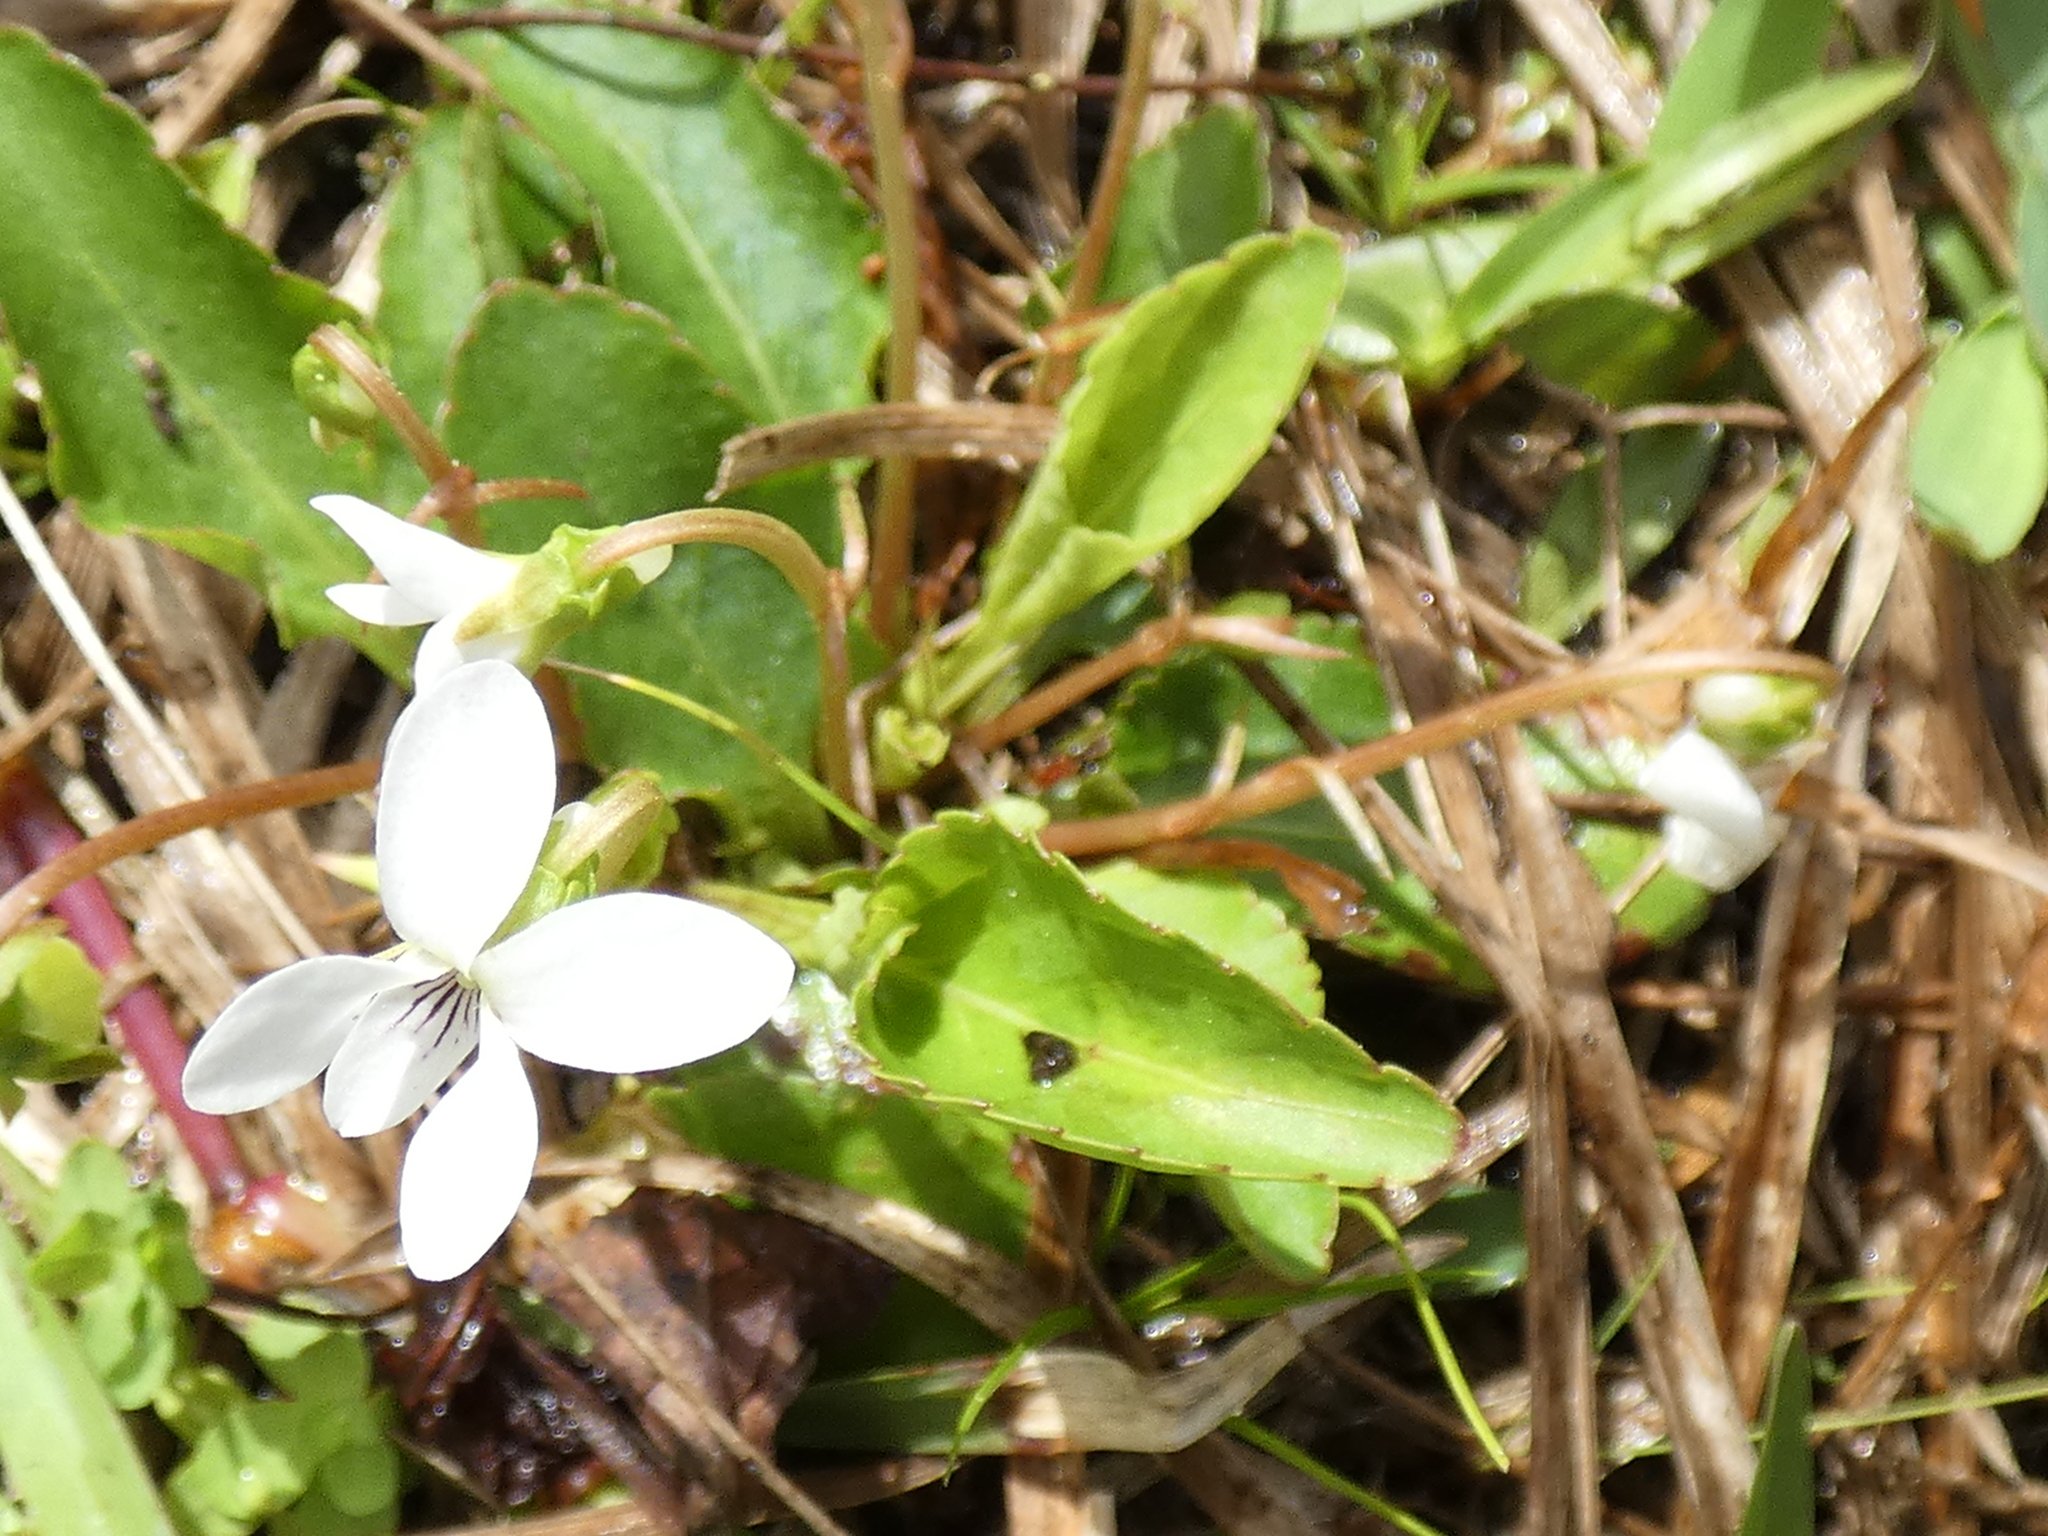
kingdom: Plantae
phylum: Tracheophyta
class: Magnoliopsida
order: Malpighiales
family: Violaceae
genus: Viola
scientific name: Viola primulifolia
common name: Primrose-leaf violet
